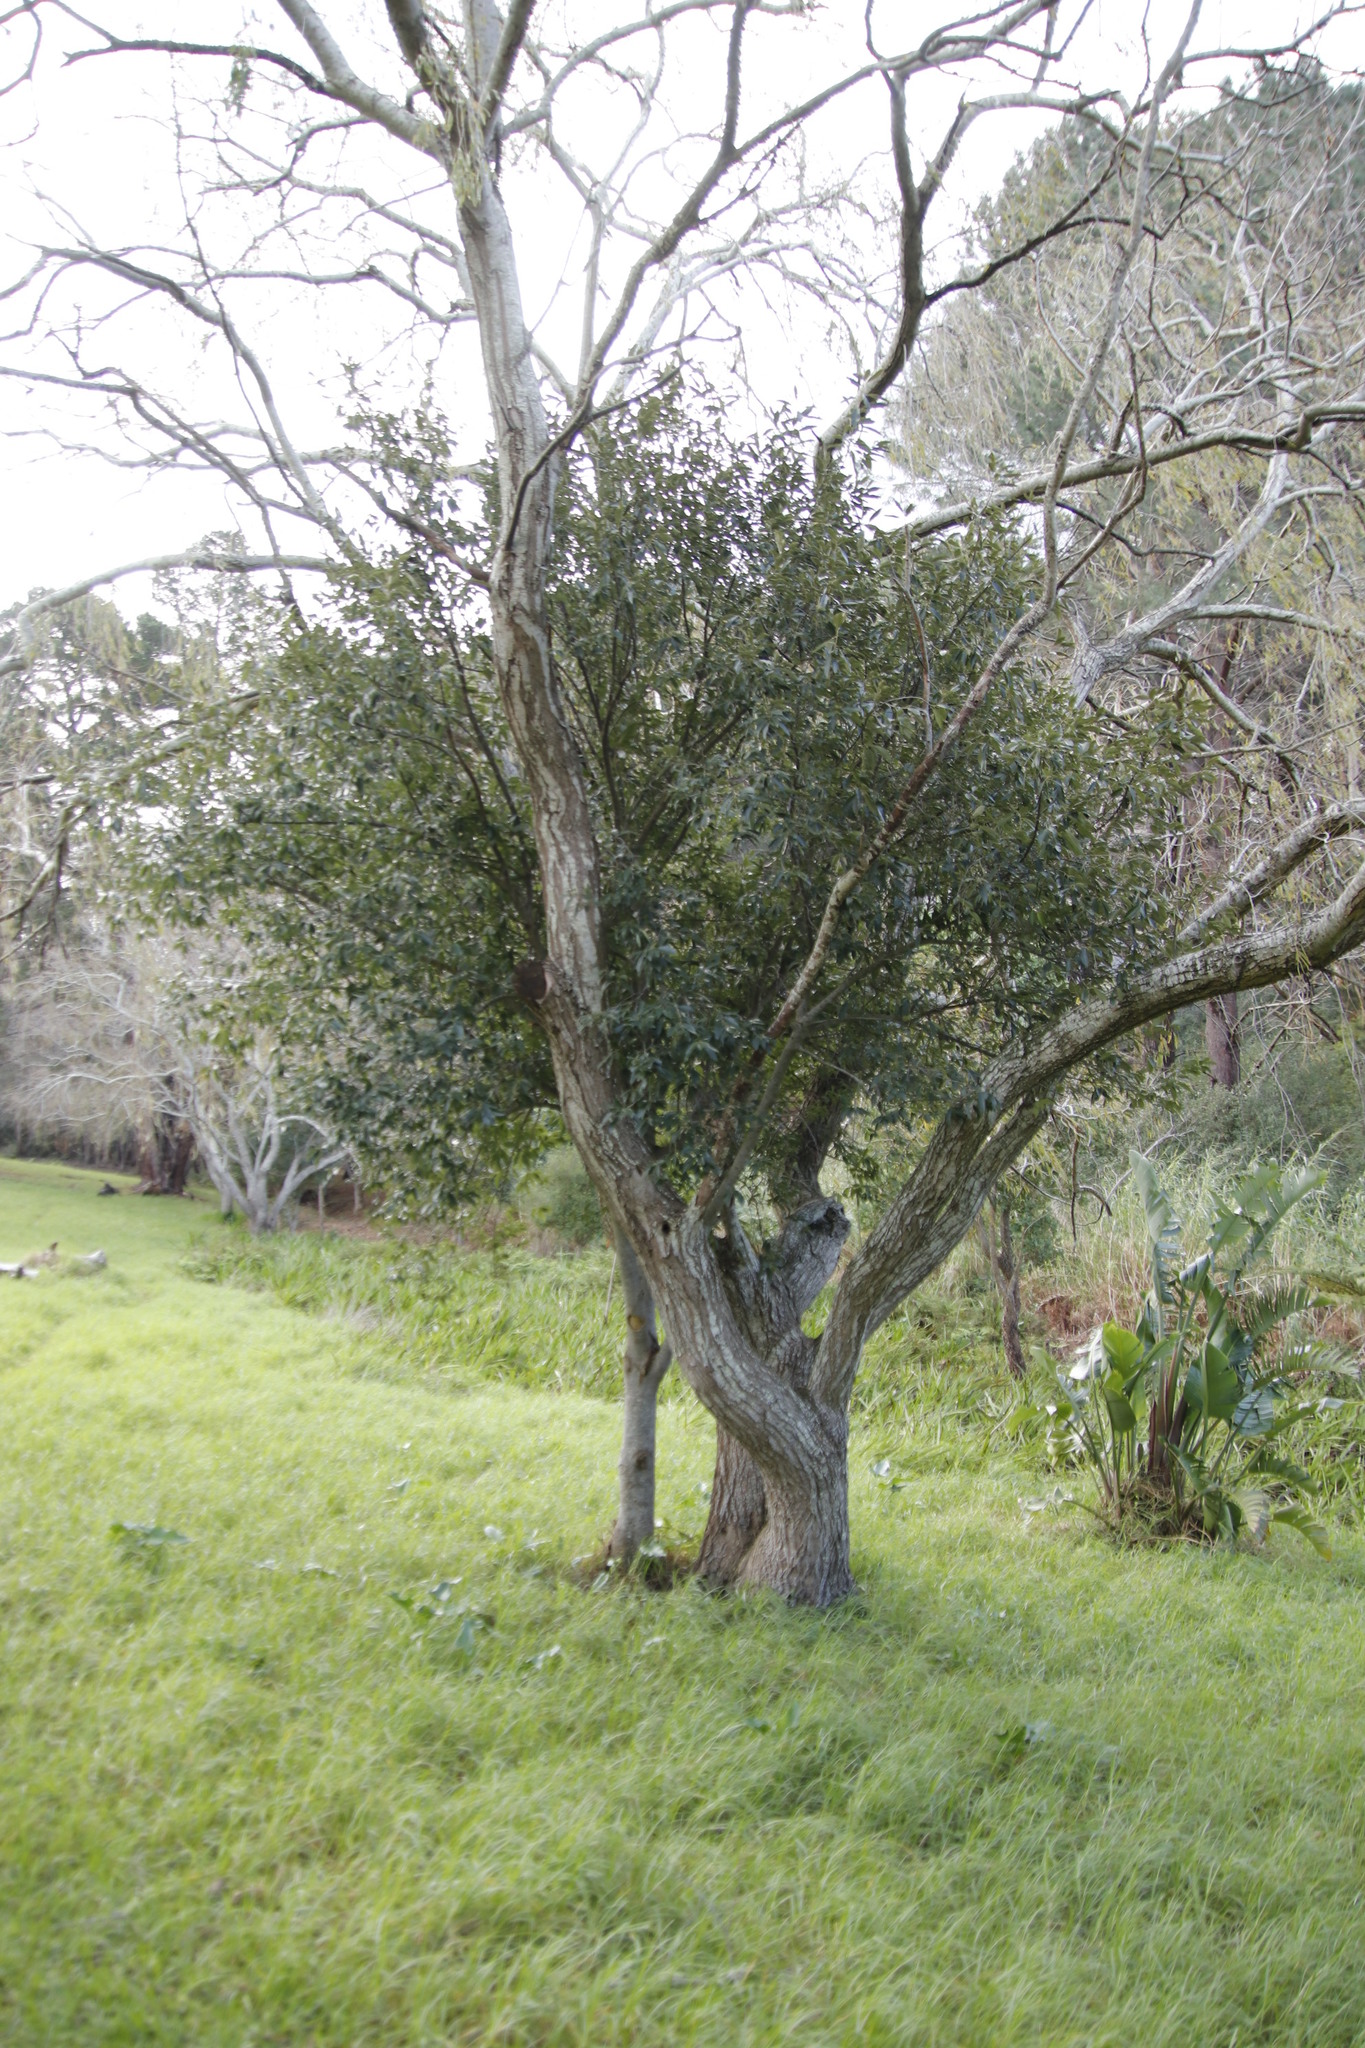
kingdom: Plantae
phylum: Tracheophyta
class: Magnoliopsida
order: Malpighiales
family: Achariaceae
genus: Kiggelaria
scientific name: Kiggelaria africana
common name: Wild peach
